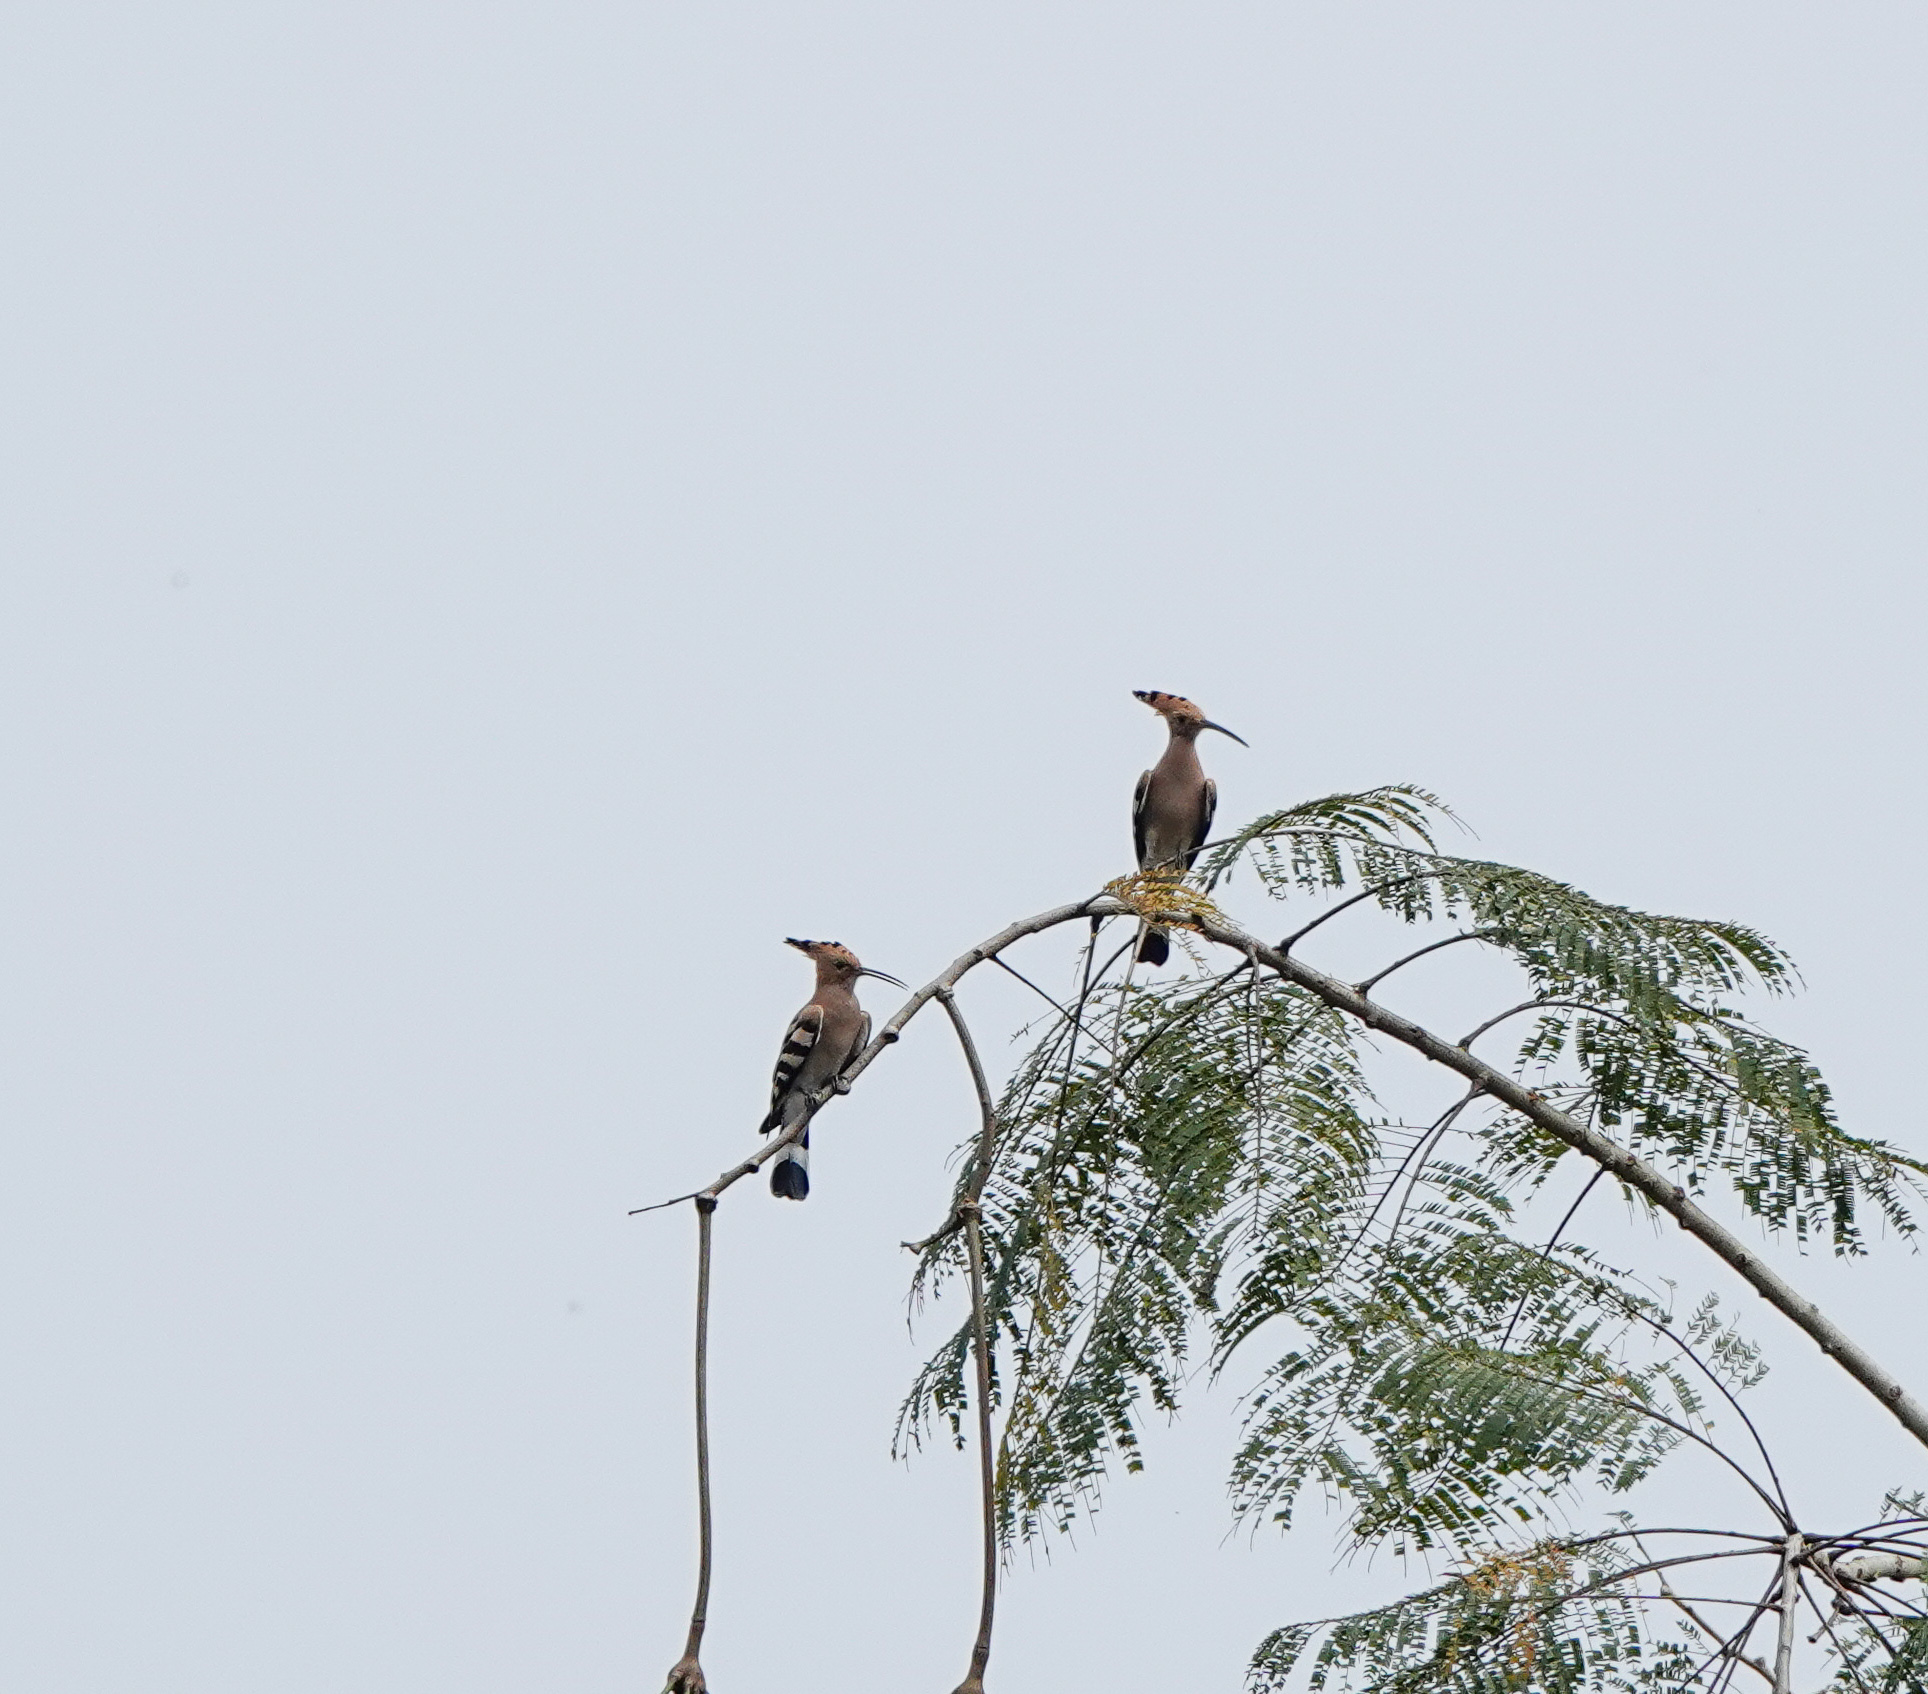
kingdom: Animalia
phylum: Chordata
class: Aves
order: Bucerotiformes
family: Upupidae
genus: Upupa
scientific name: Upupa epops
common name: Eurasian hoopoe
